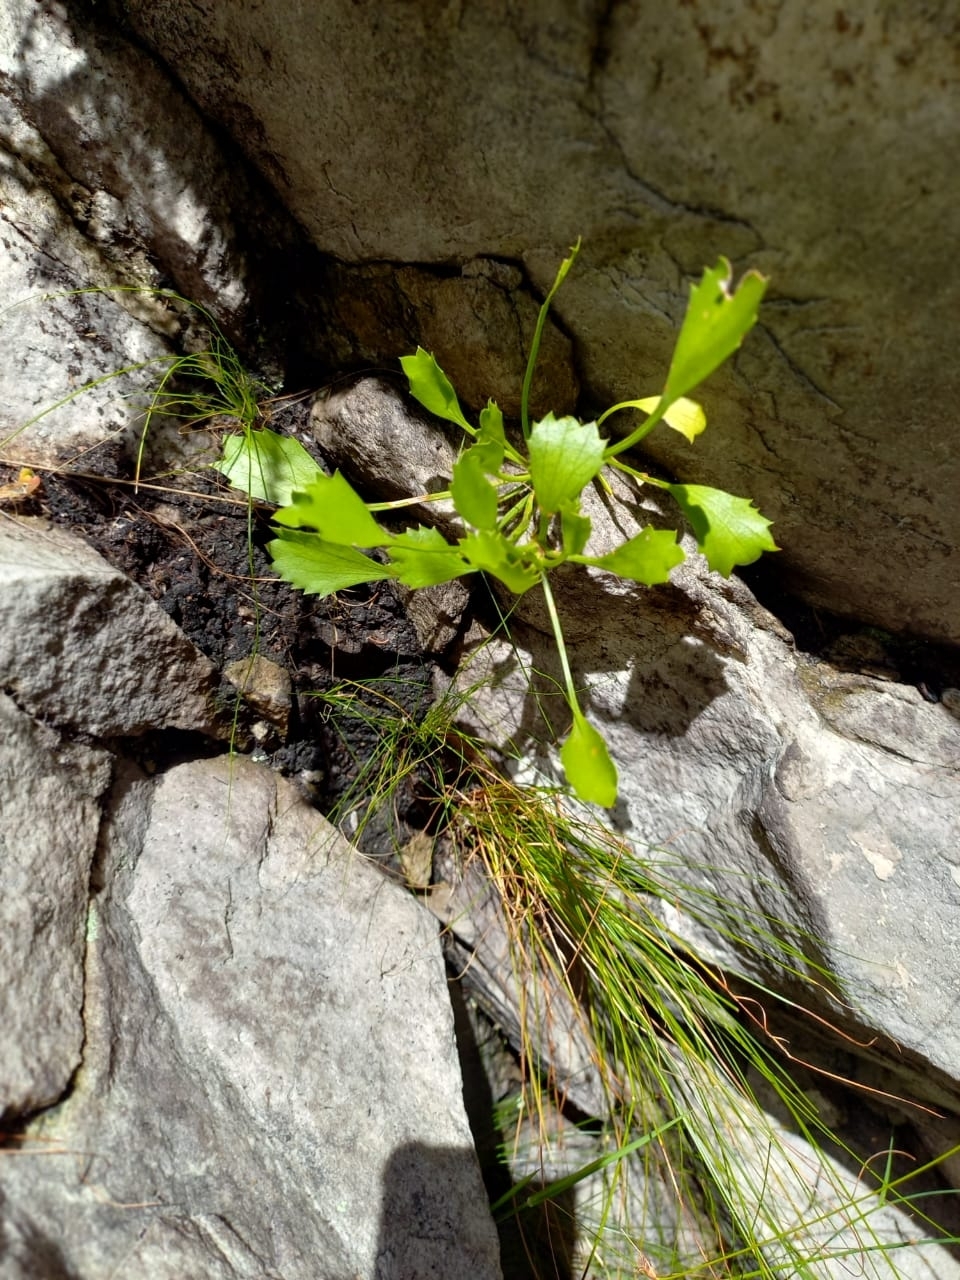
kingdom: Plantae
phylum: Tracheophyta
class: Magnoliopsida
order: Apiales
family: Apiaceae
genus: Centella
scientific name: Centella triloba
